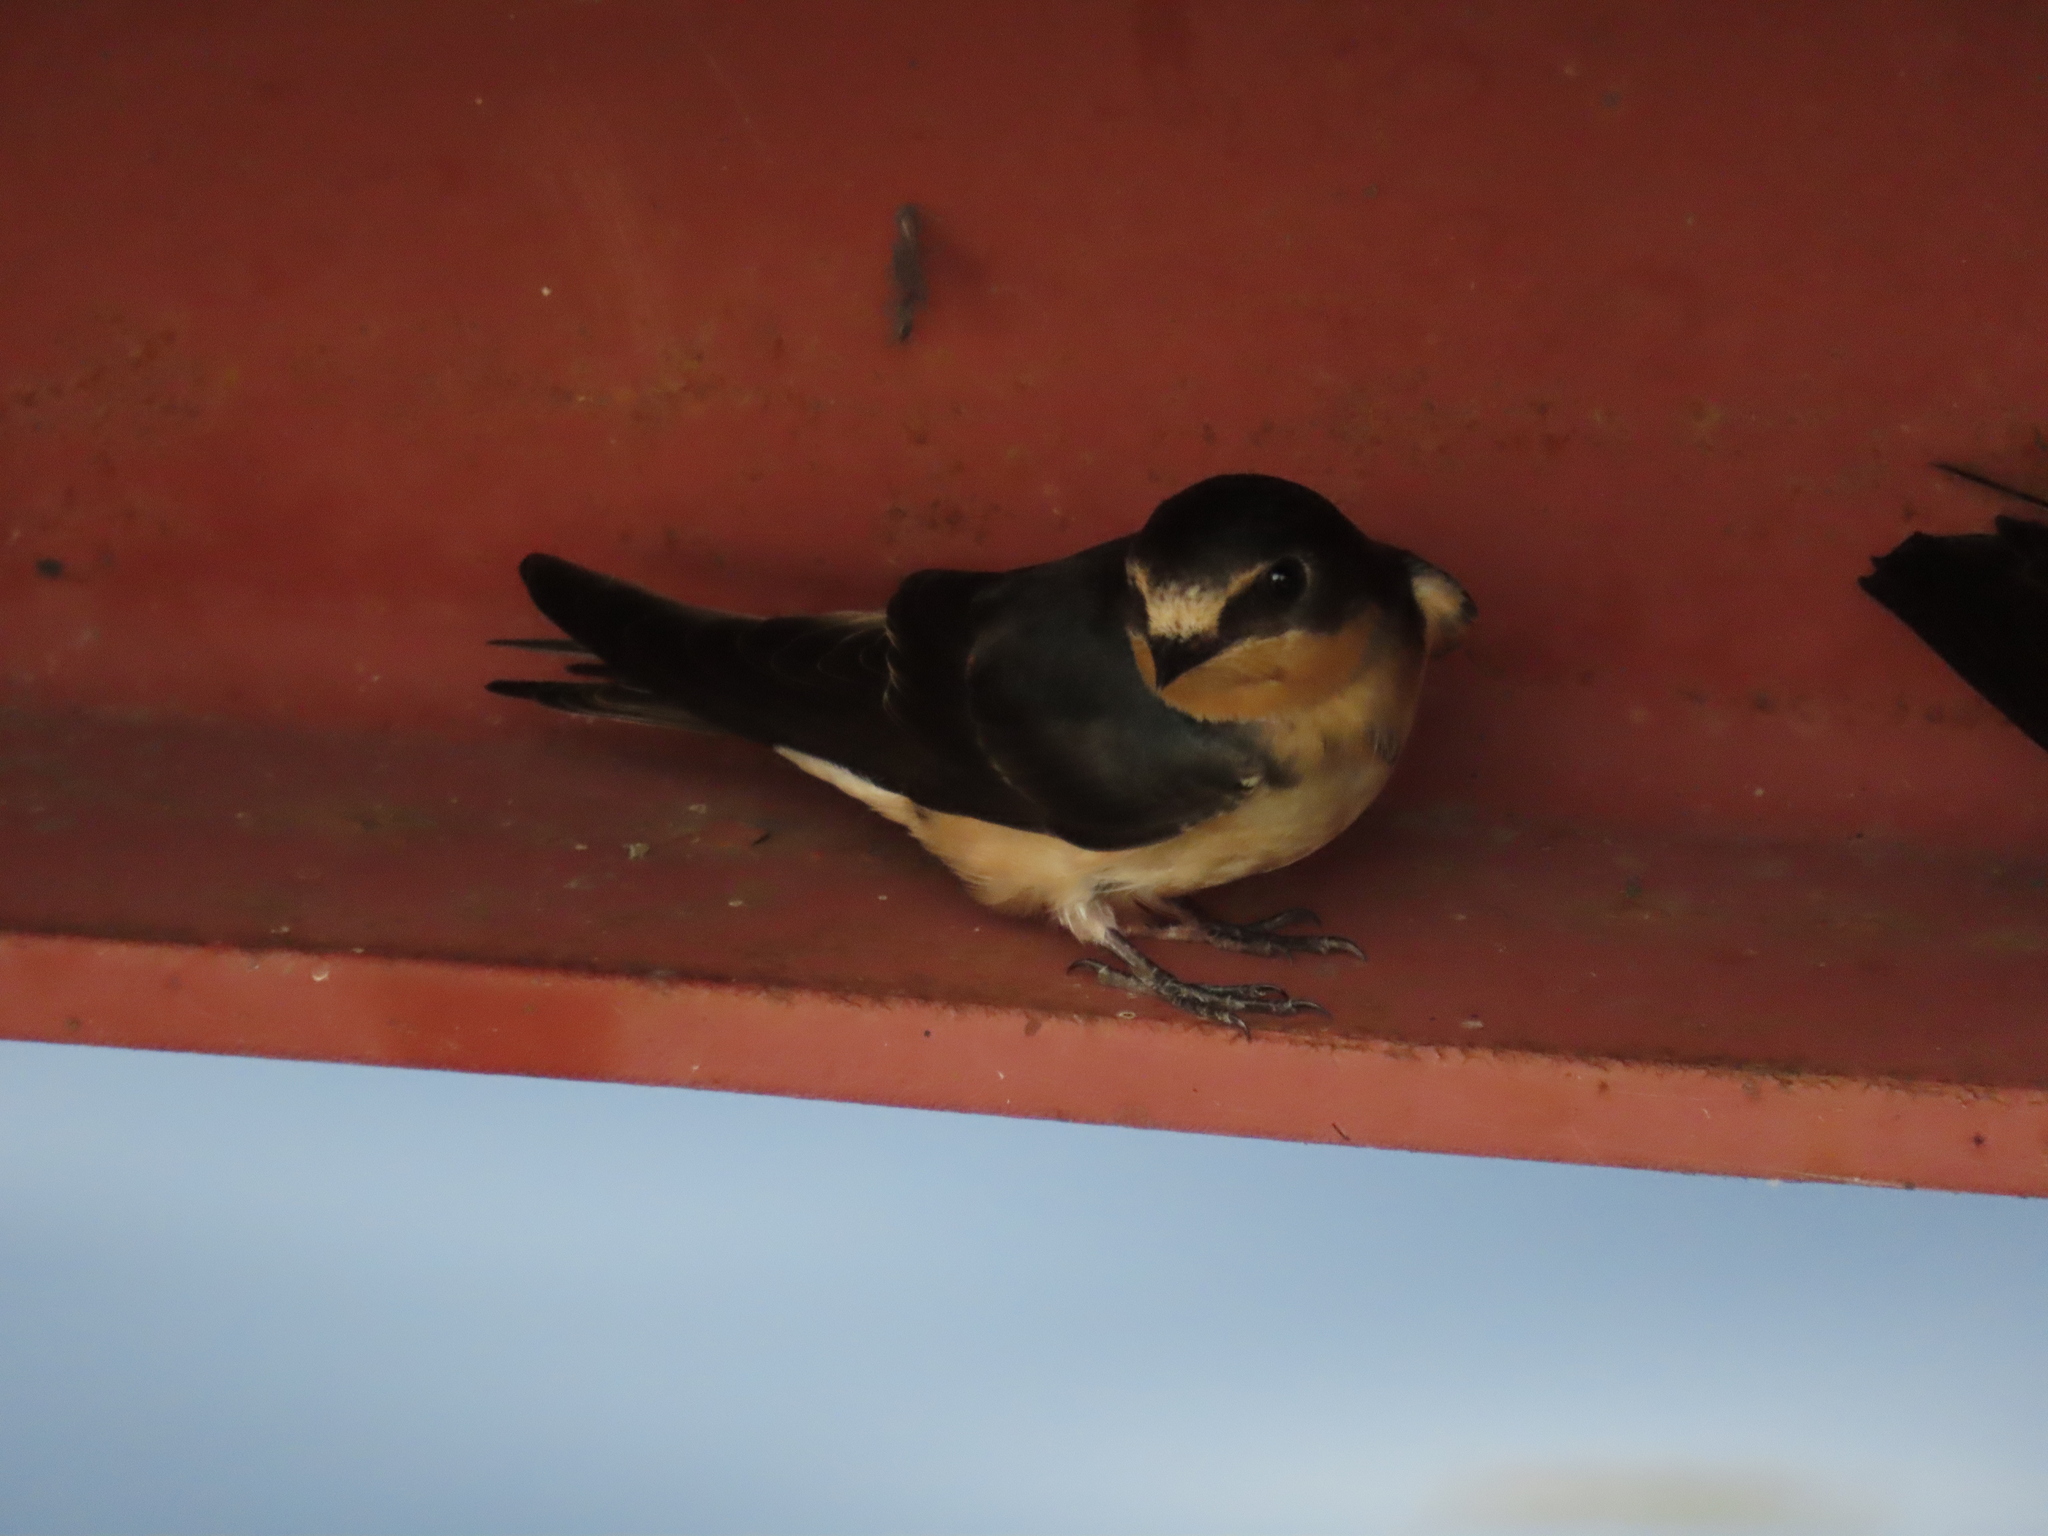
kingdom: Animalia
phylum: Chordata
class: Aves
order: Passeriformes
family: Hirundinidae
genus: Hirundo
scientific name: Hirundo rustica
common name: Barn swallow
